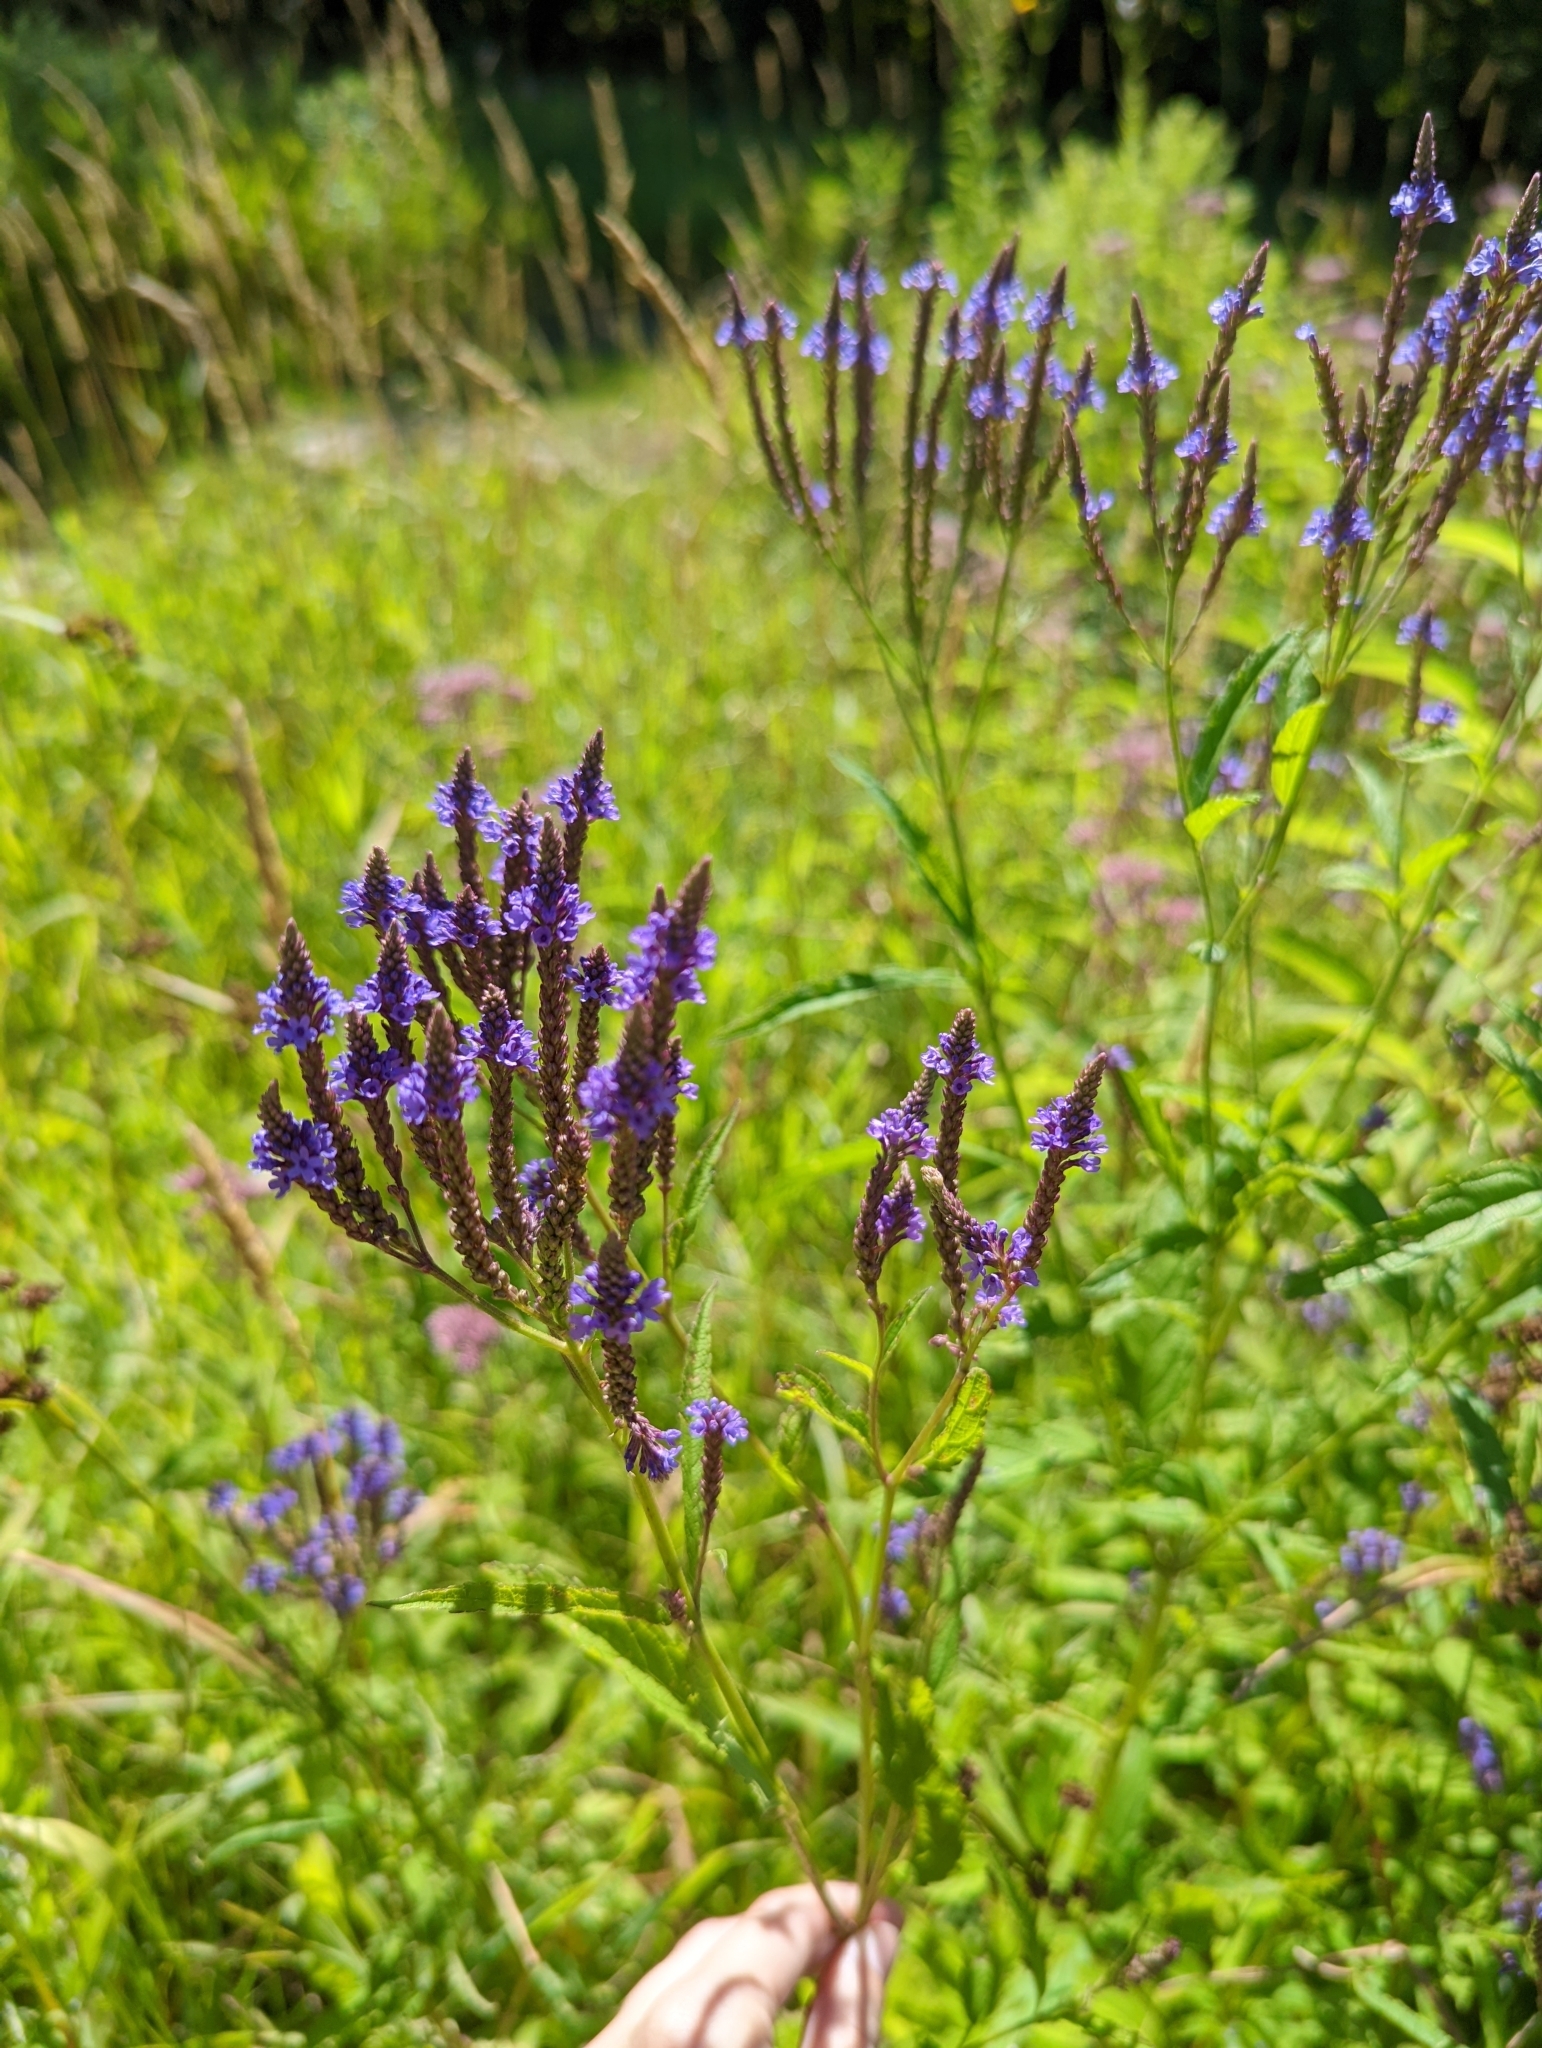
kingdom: Plantae
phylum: Tracheophyta
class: Magnoliopsida
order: Lamiales
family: Verbenaceae
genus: Verbena
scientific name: Verbena hastata
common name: American blue vervain
